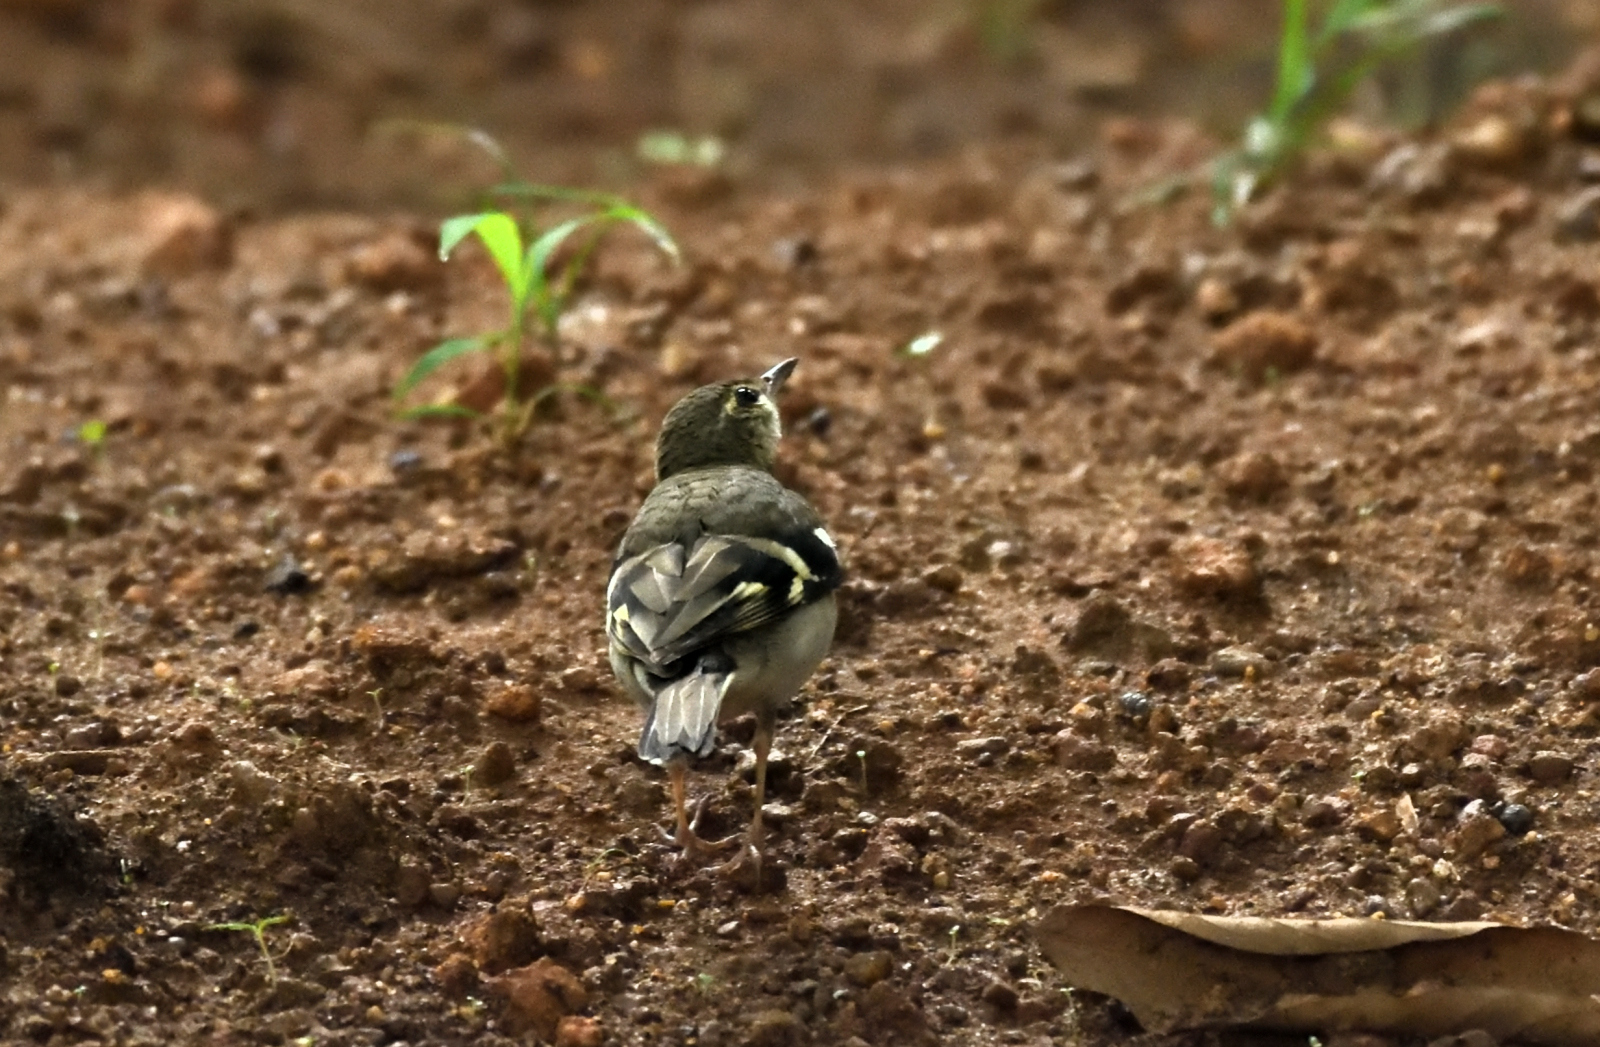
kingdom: Animalia
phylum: Chordata
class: Aves
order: Passeriformes
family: Motacillidae
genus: Dendronanthus
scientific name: Dendronanthus indicus
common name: Forest wagtail
